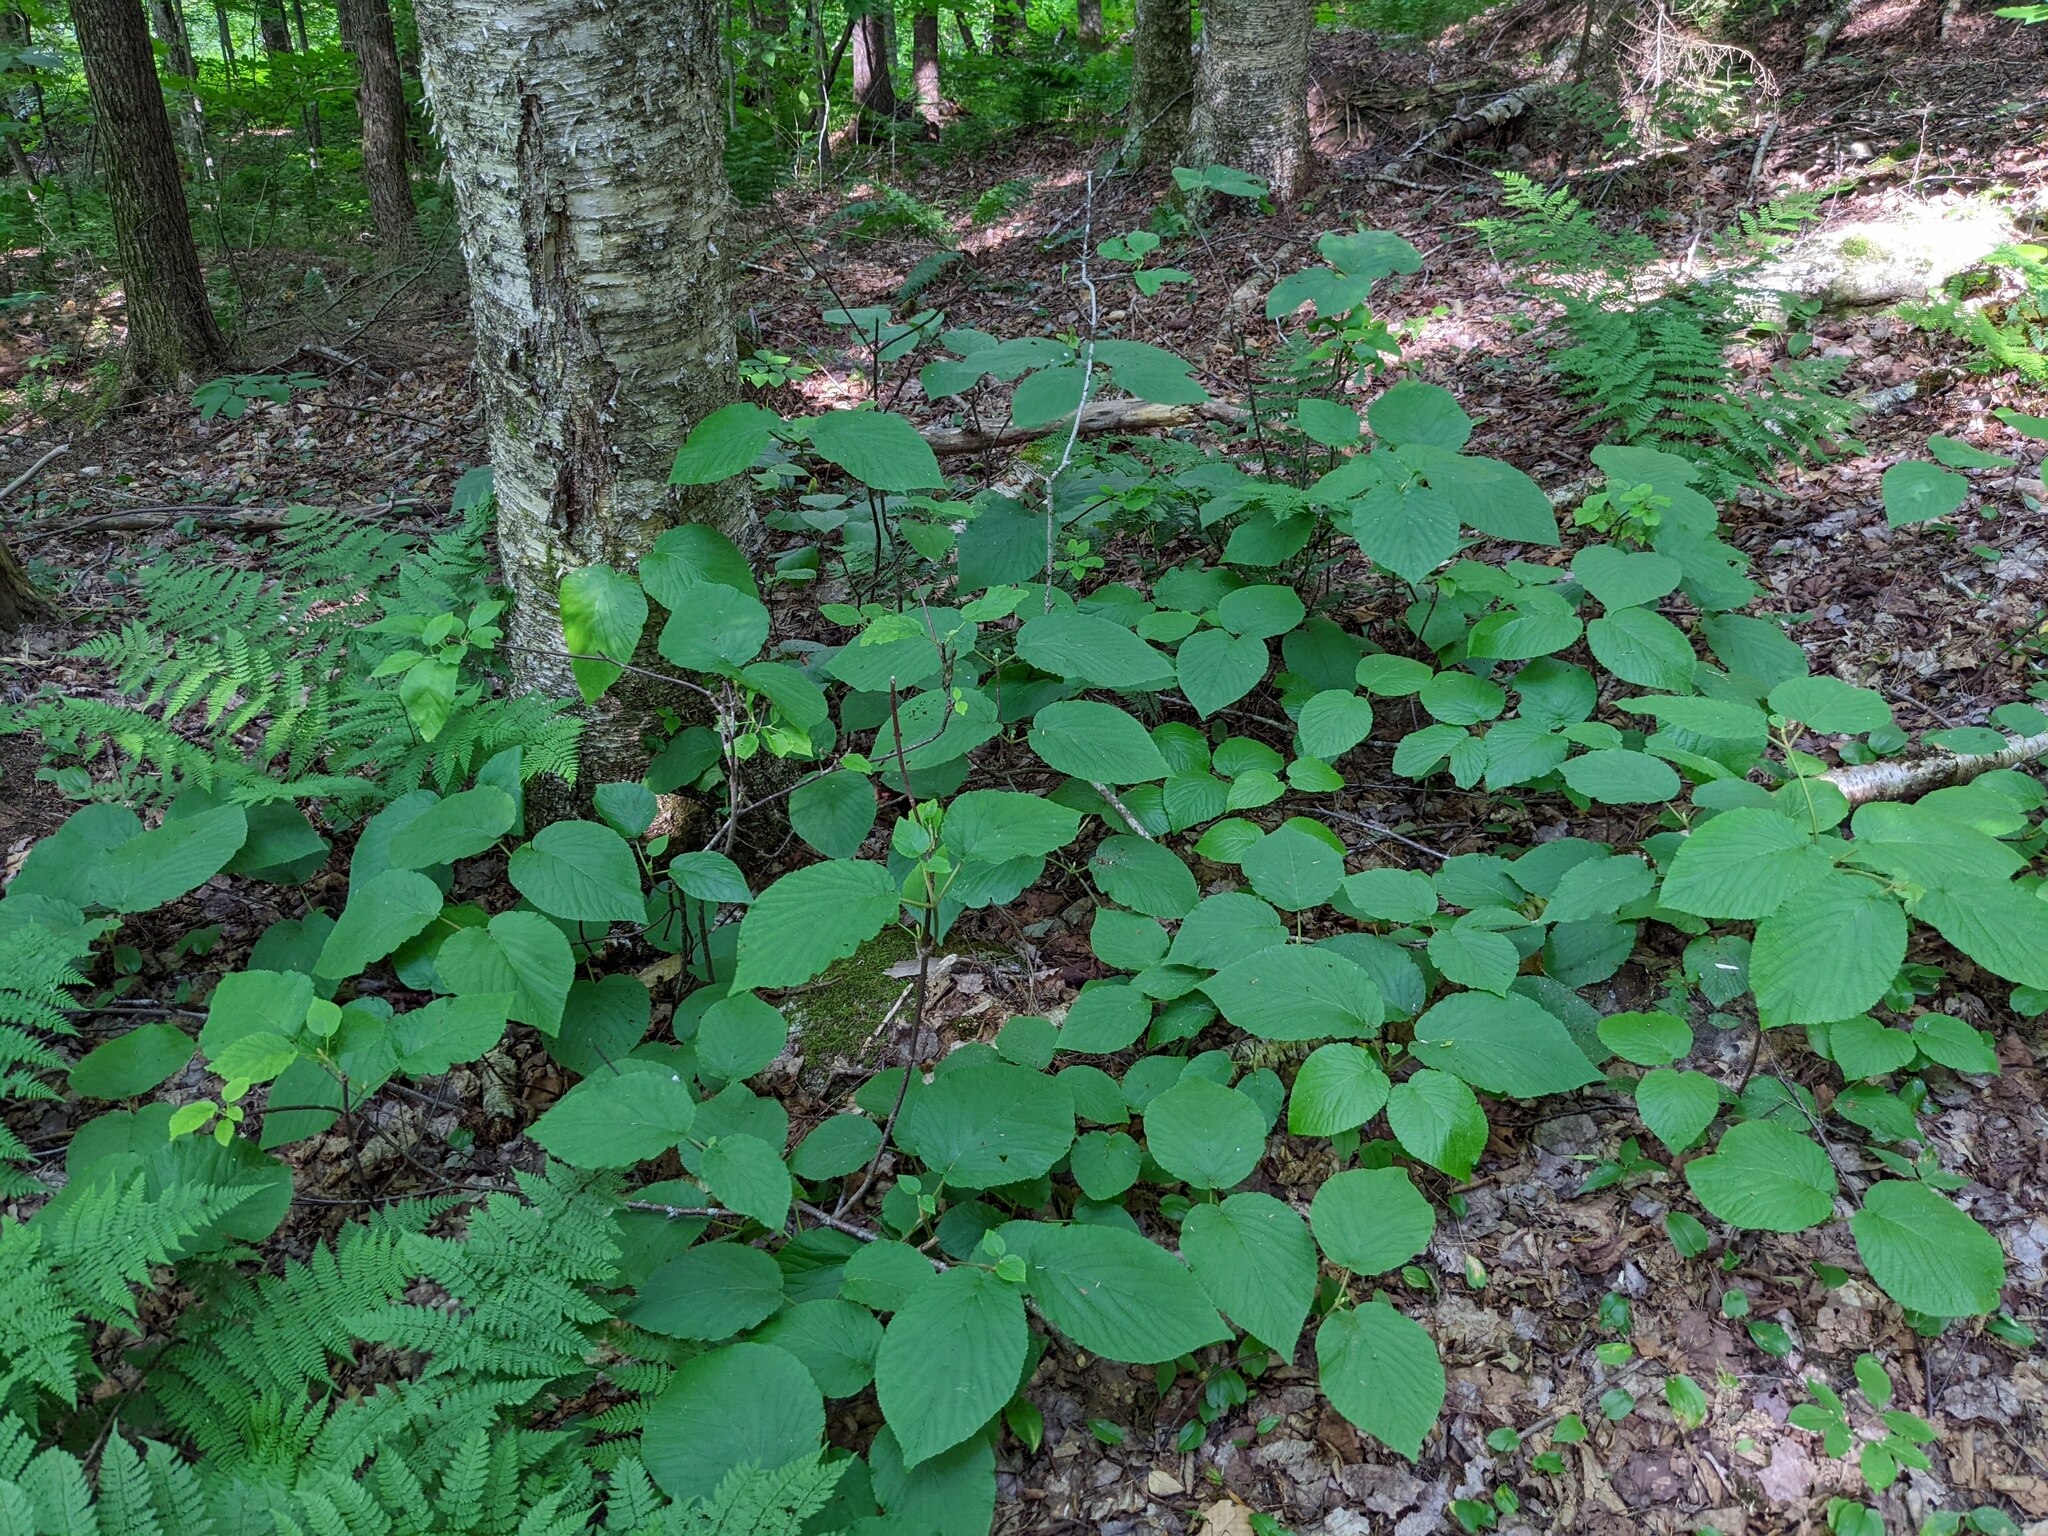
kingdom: Plantae
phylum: Tracheophyta
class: Magnoliopsida
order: Dipsacales
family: Viburnaceae
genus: Viburnum
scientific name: Viburnum lantanoides
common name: Hobblebush
